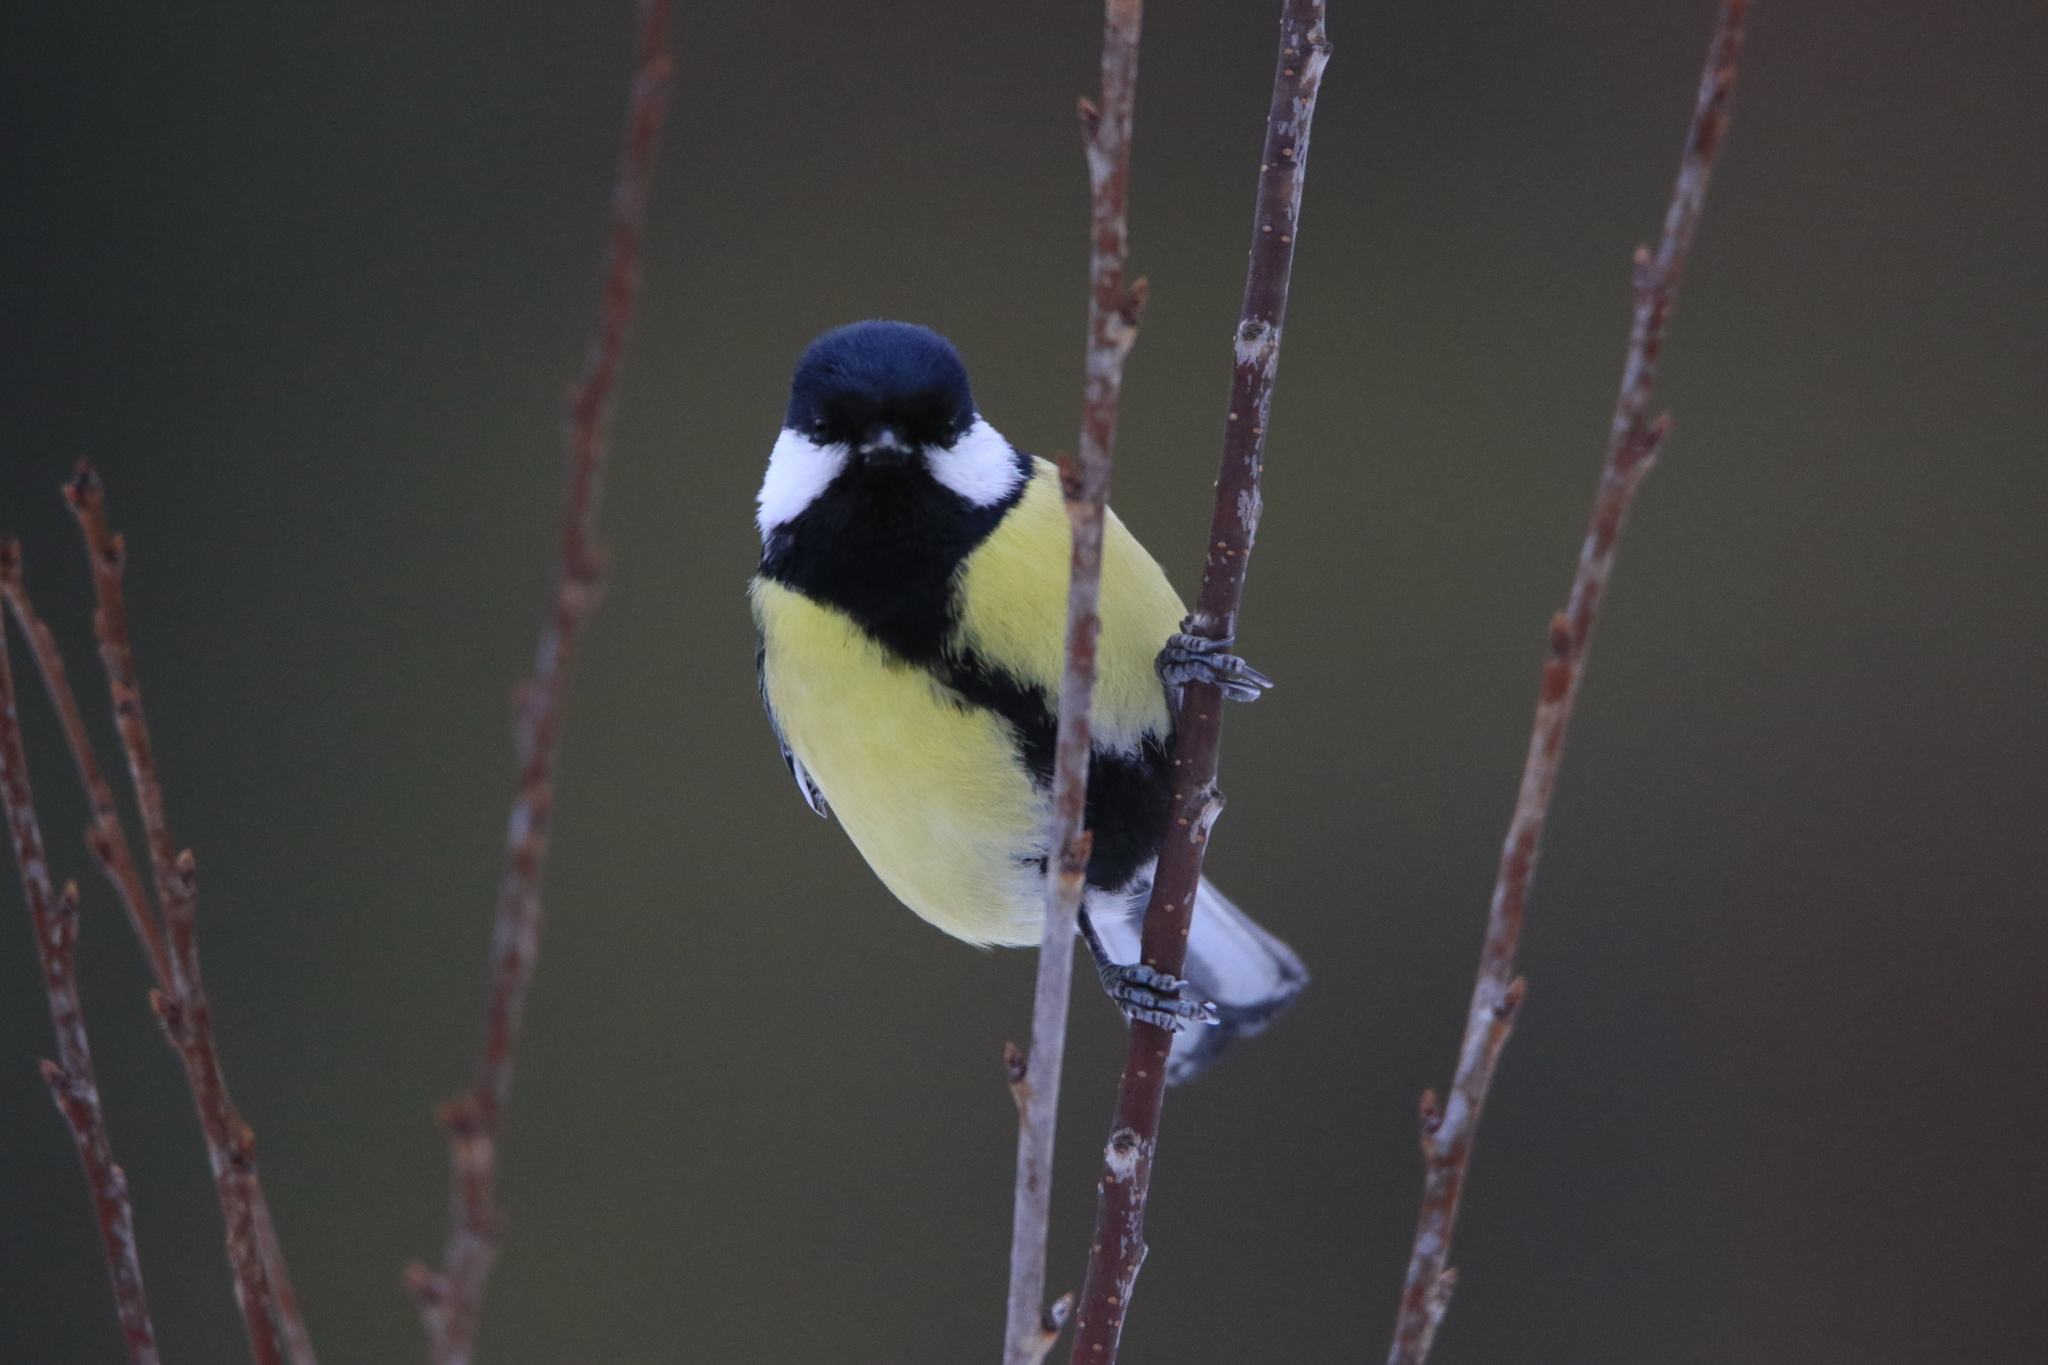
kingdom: Animalia
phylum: Chordata
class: Aves
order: Passeriformes
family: Paridae
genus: Parus
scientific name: Parus major
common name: Great tit
